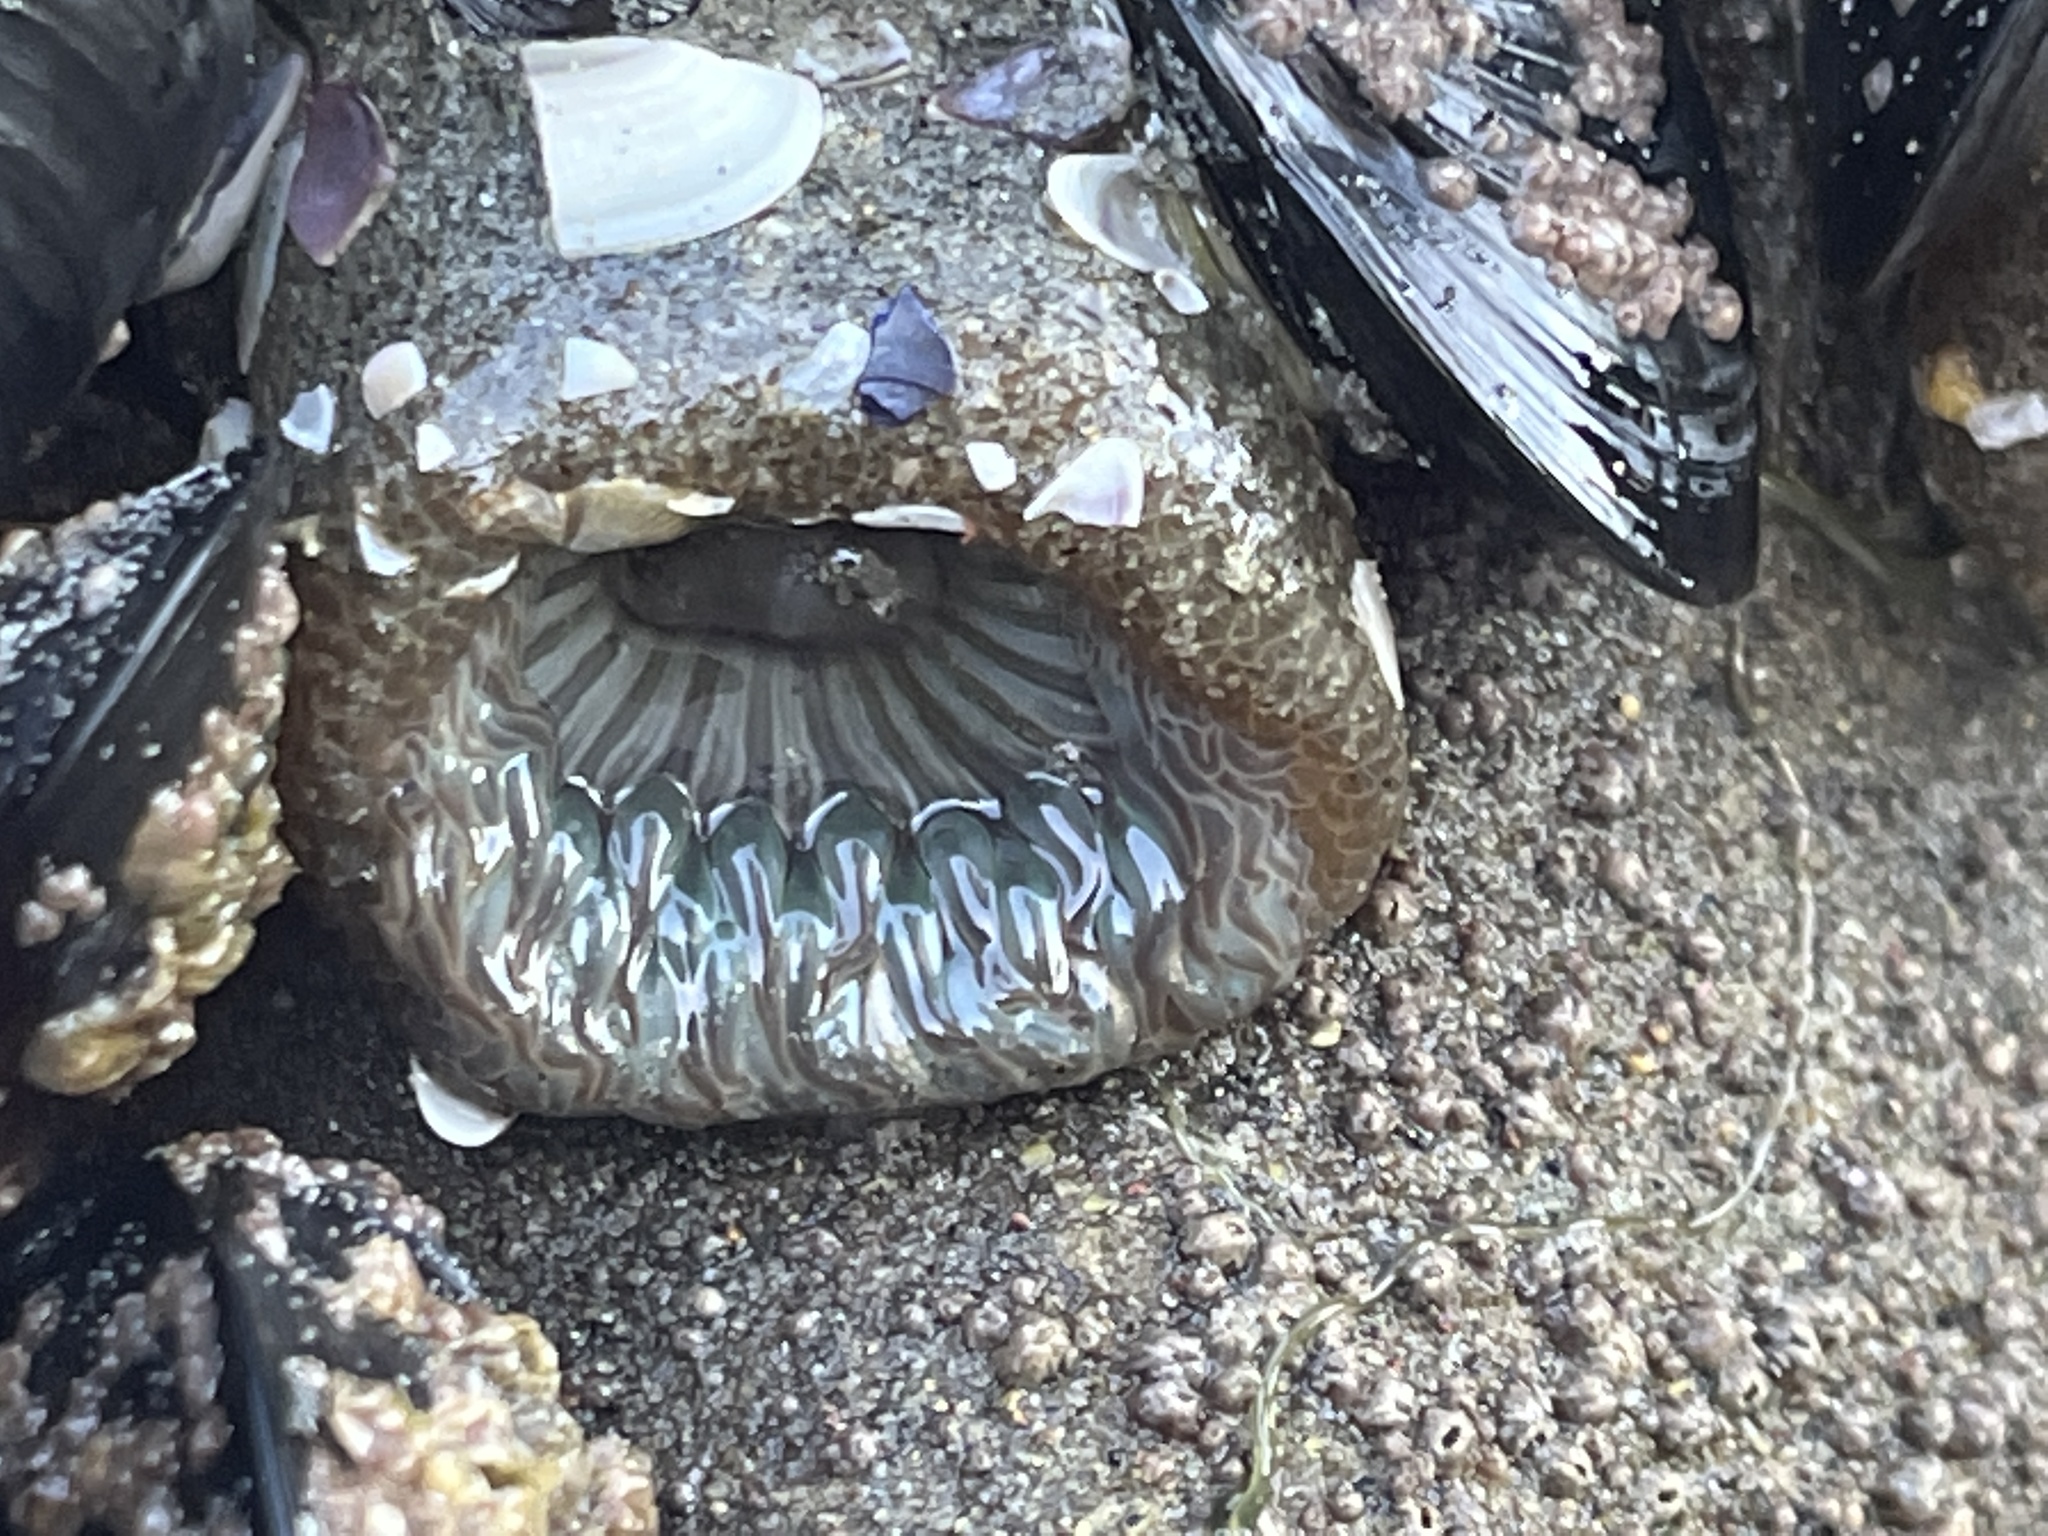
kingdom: Animalia
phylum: Cnidaria
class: Anthozoa
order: Actiniaria
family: Actiniidae
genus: Anthopleura
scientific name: Anthopleura sola
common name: Sun anemone
